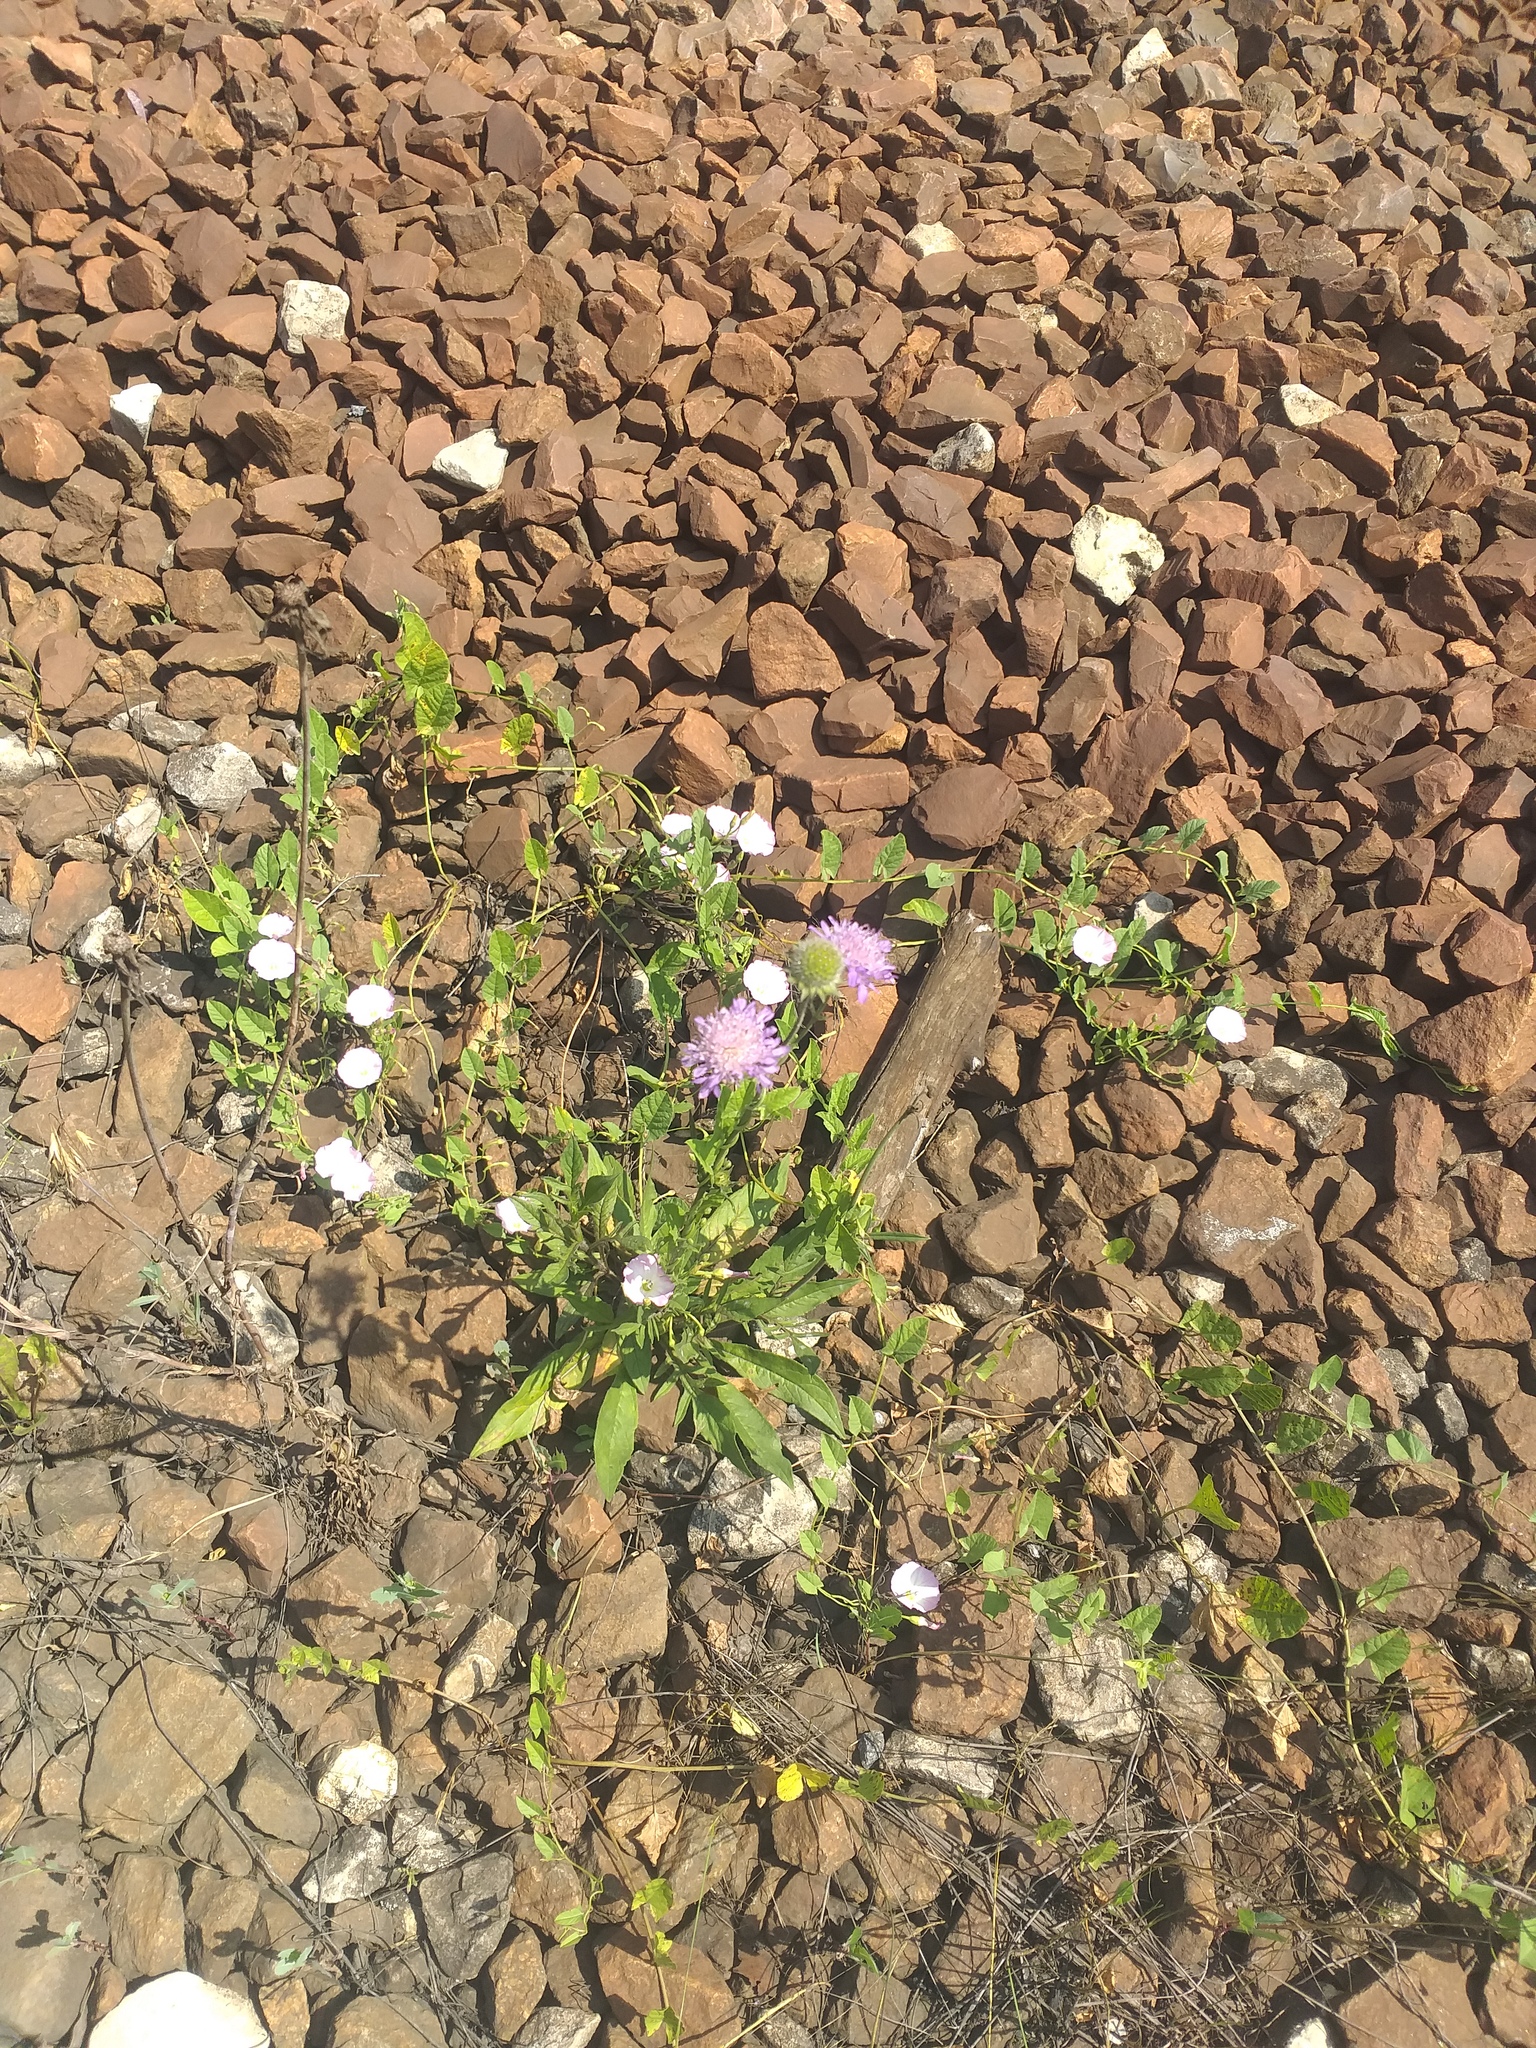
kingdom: Plantae
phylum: Tracheophyta
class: Magnoliopsida
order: Dipsacales
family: Caprifoliaceae
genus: Knautia
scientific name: Knautia arvensis
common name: Field scabiosa
